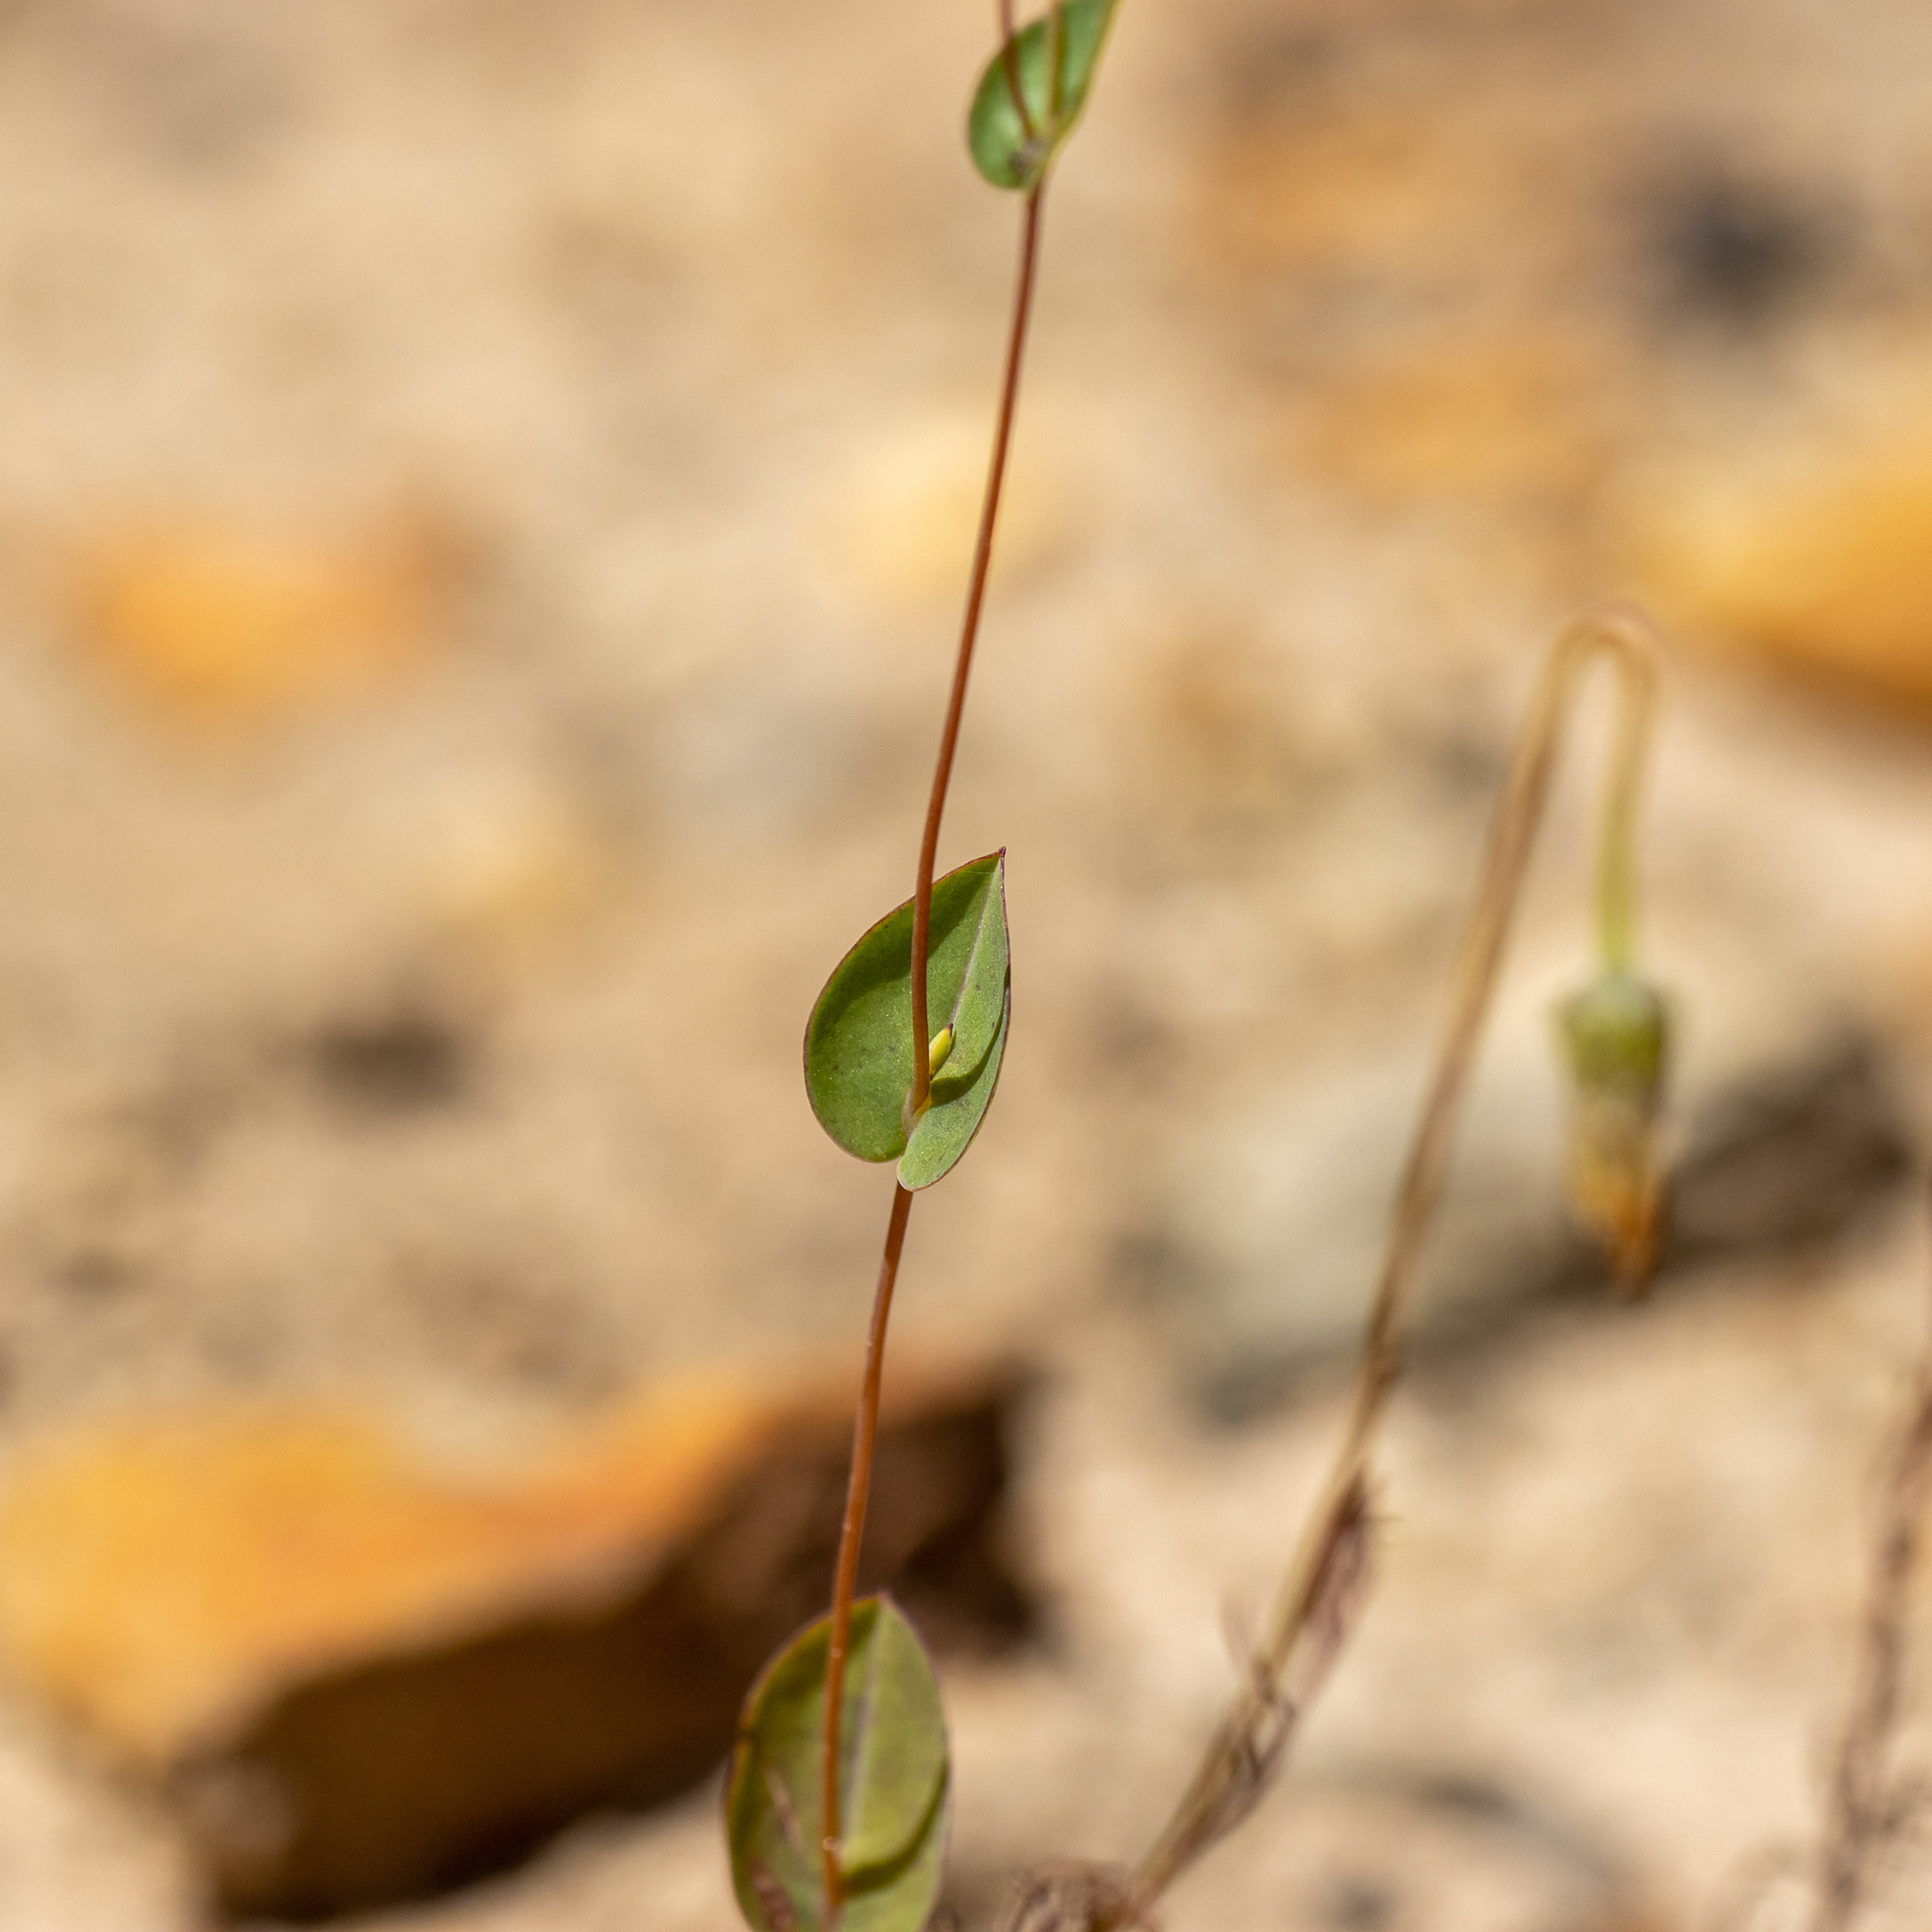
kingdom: Plantae
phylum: Tracheophyta
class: Magnoliopsida
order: Asterales
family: Asteraceae
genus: Rhodanthe
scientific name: Rhodanthe manglesii
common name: Pink sunray
